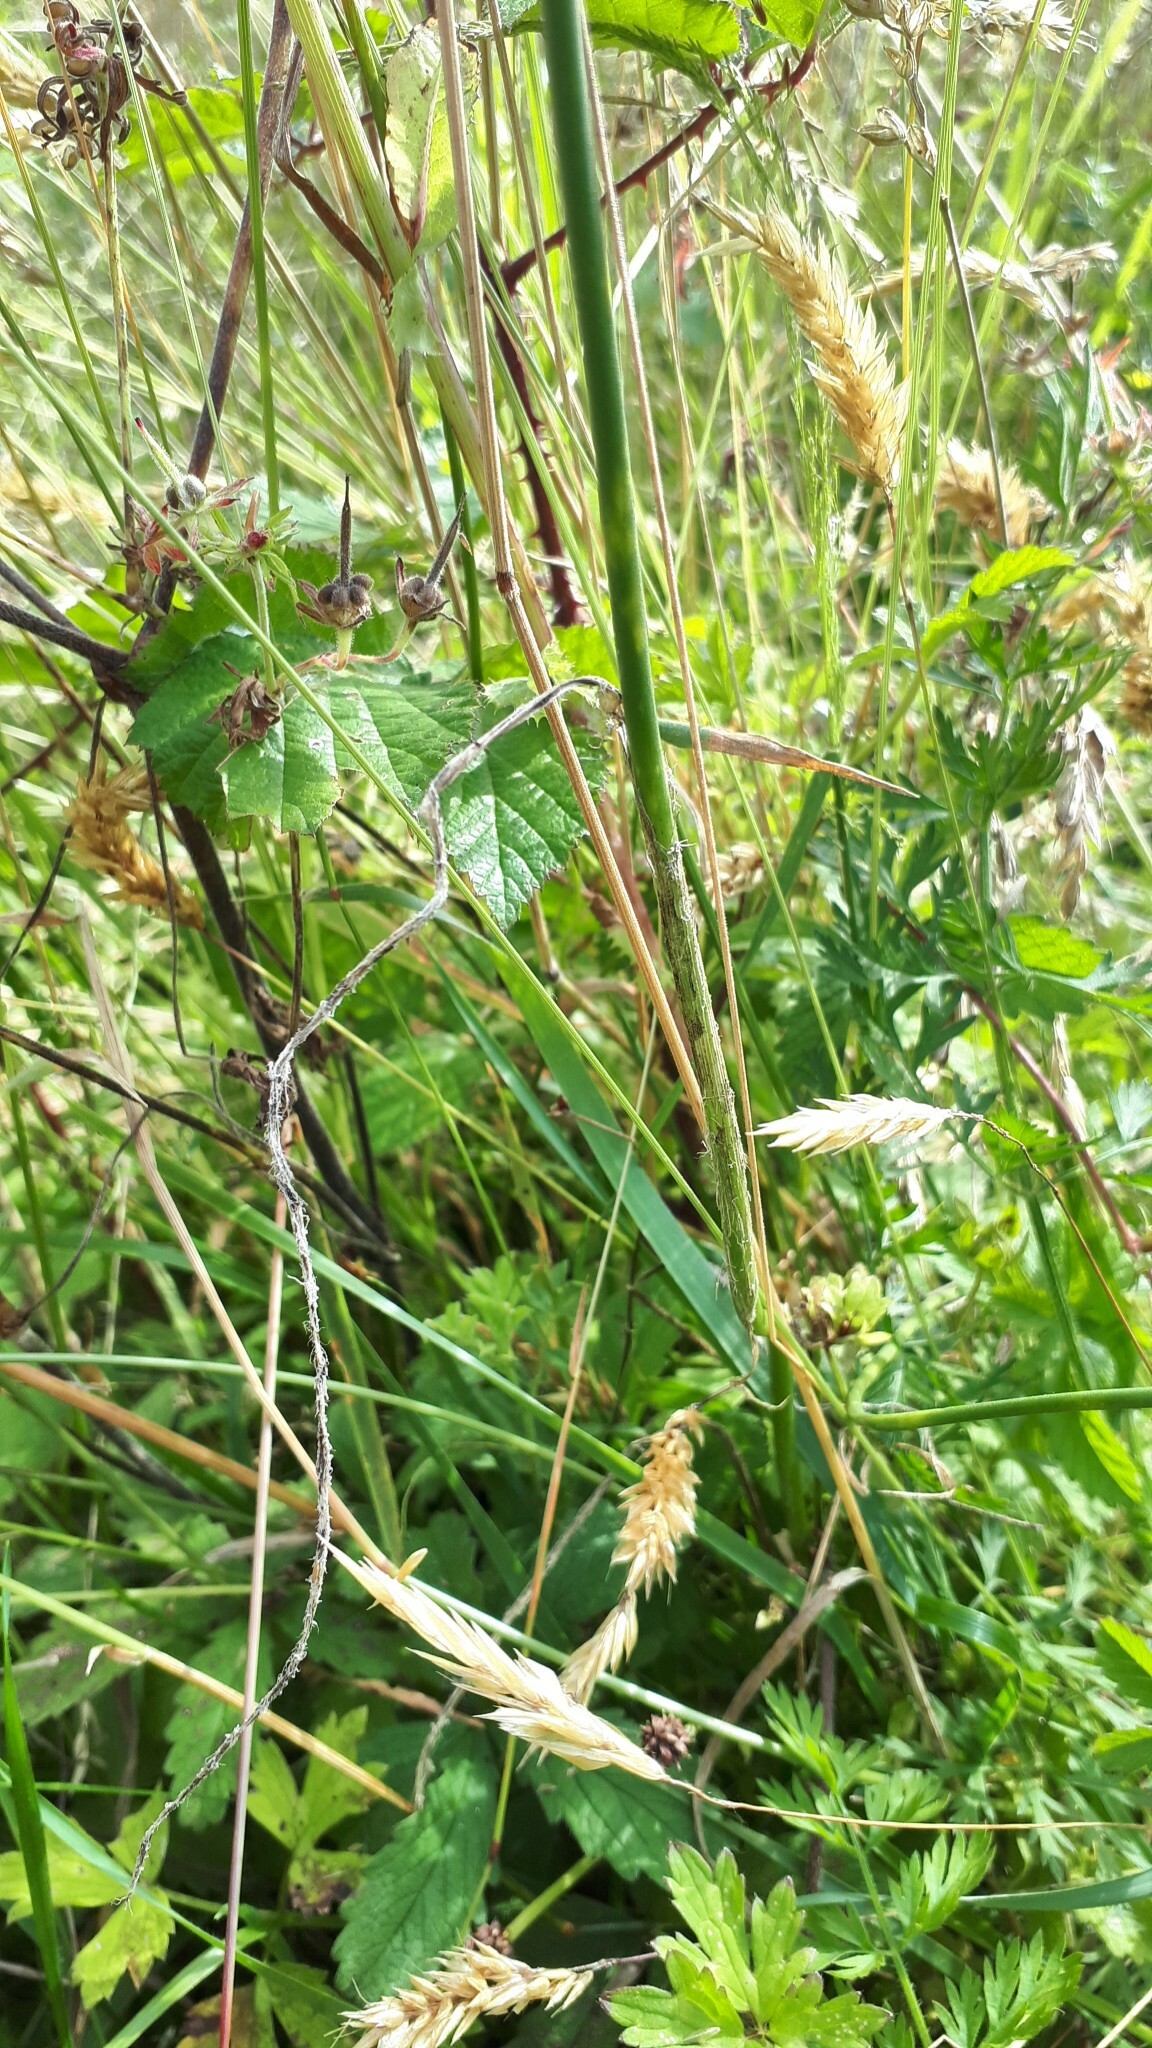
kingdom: Plantae
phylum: Tracheophyta
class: Liliopsida
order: Asparagales
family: Amaryllidaceae
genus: Allium
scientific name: Allium vineale
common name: Crow garlic
